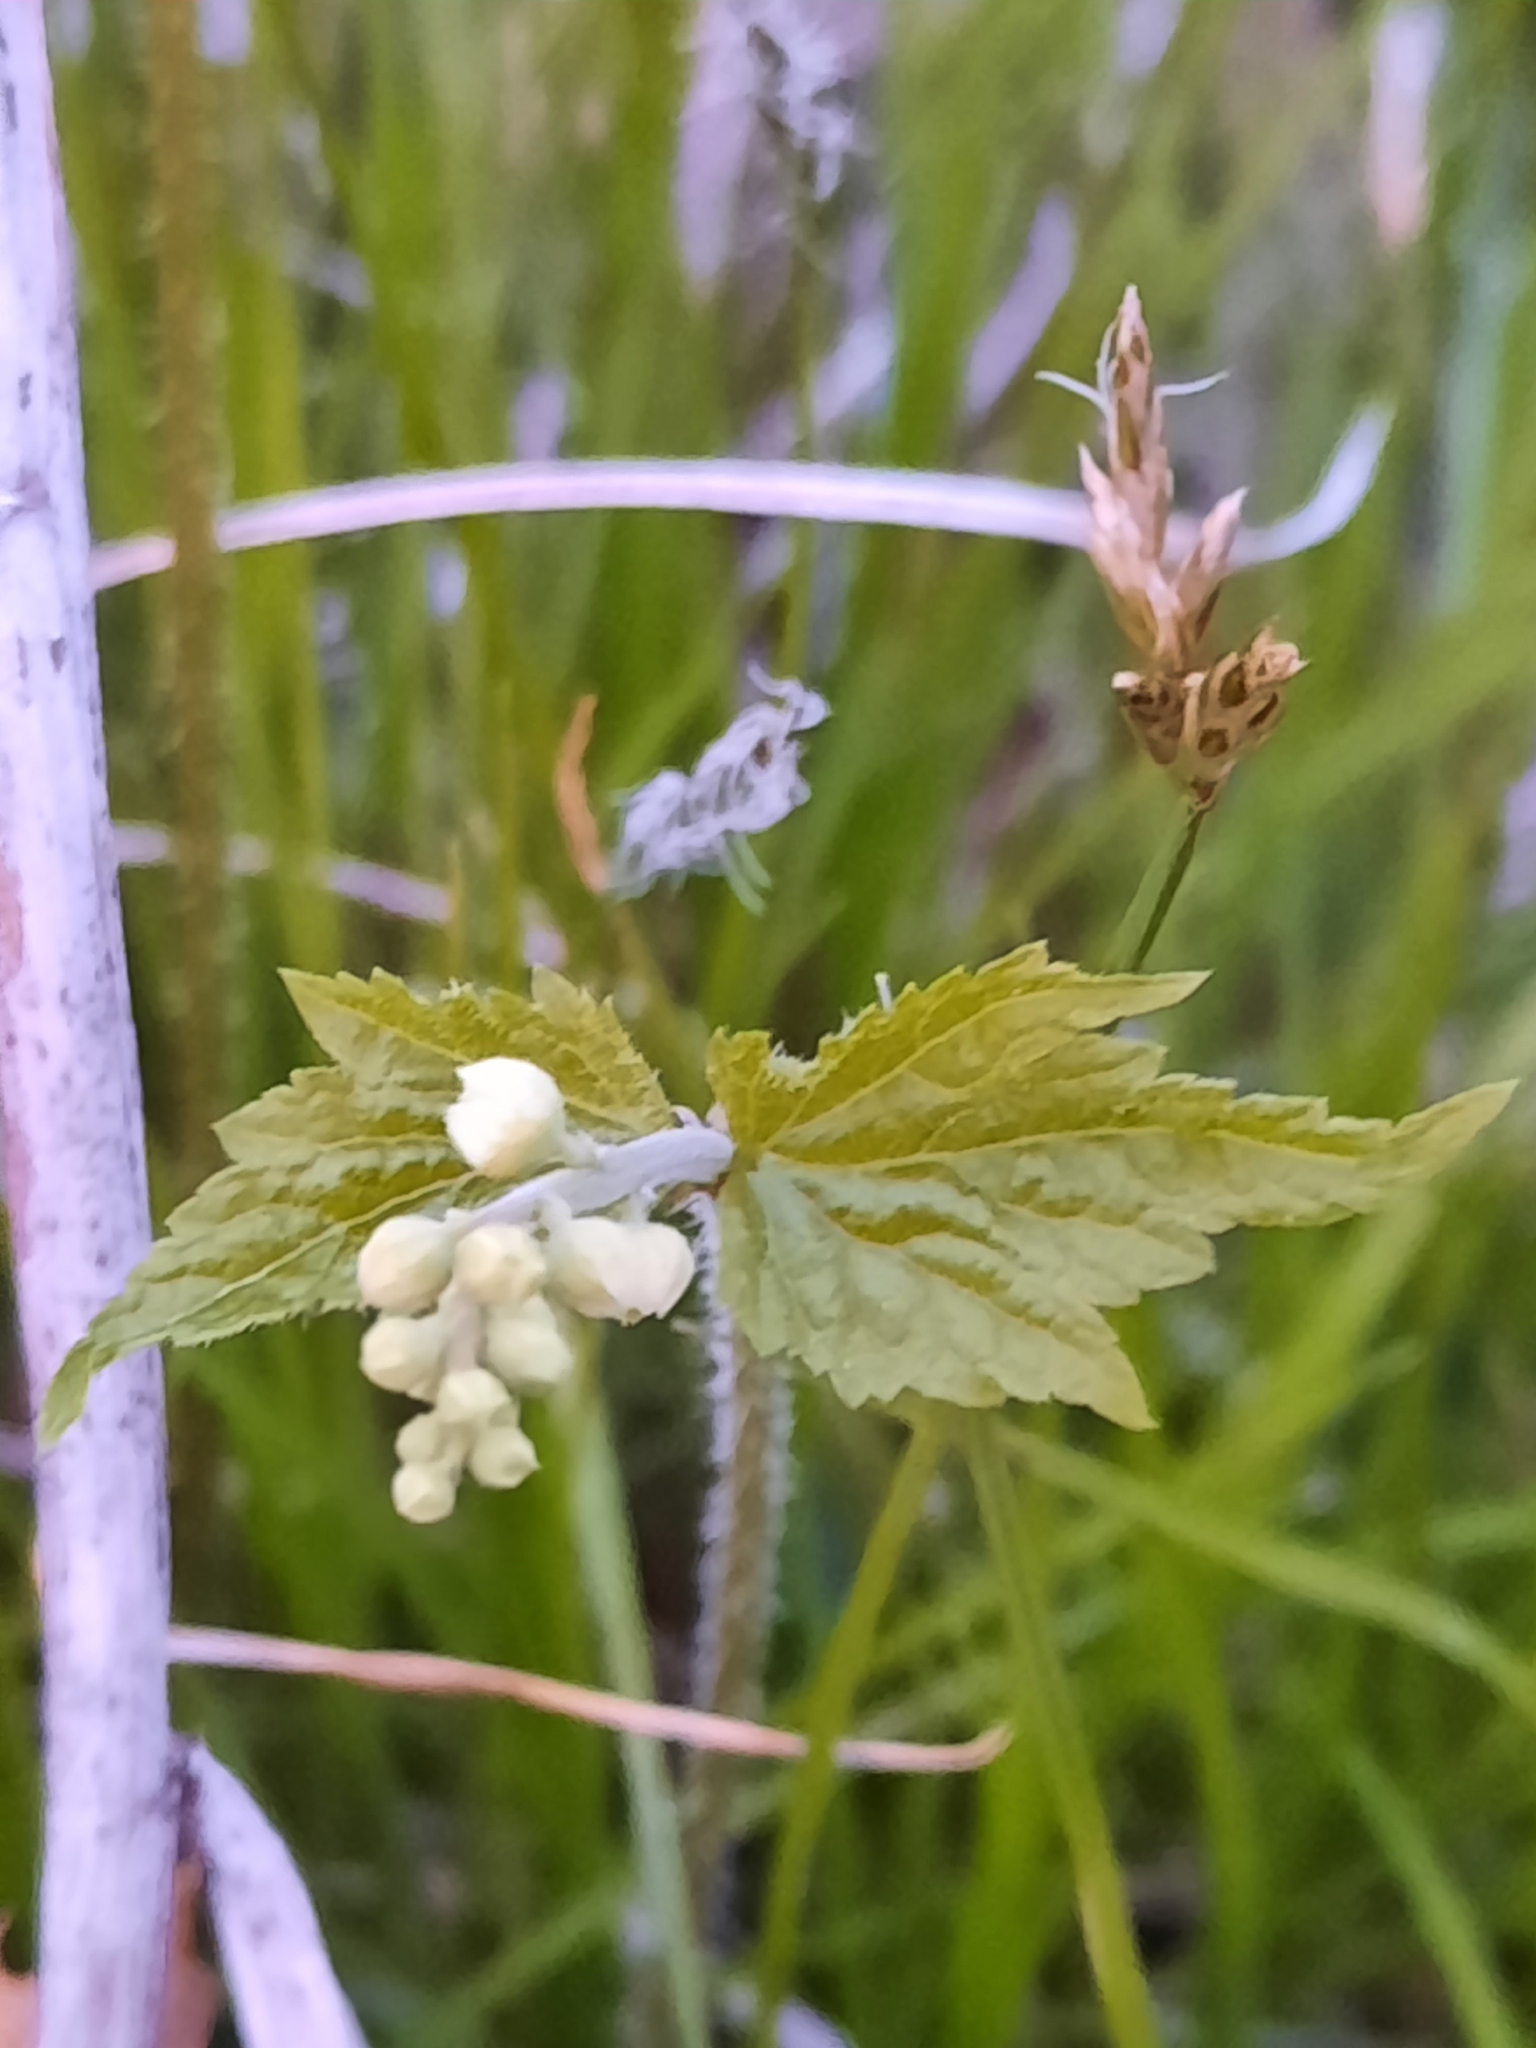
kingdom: Plantae
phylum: Tracheophyta
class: Magnoliopsida
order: Saxifragales
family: Saxifragaceae
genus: Mitella
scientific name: Mitella diphylla
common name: Coolwort
